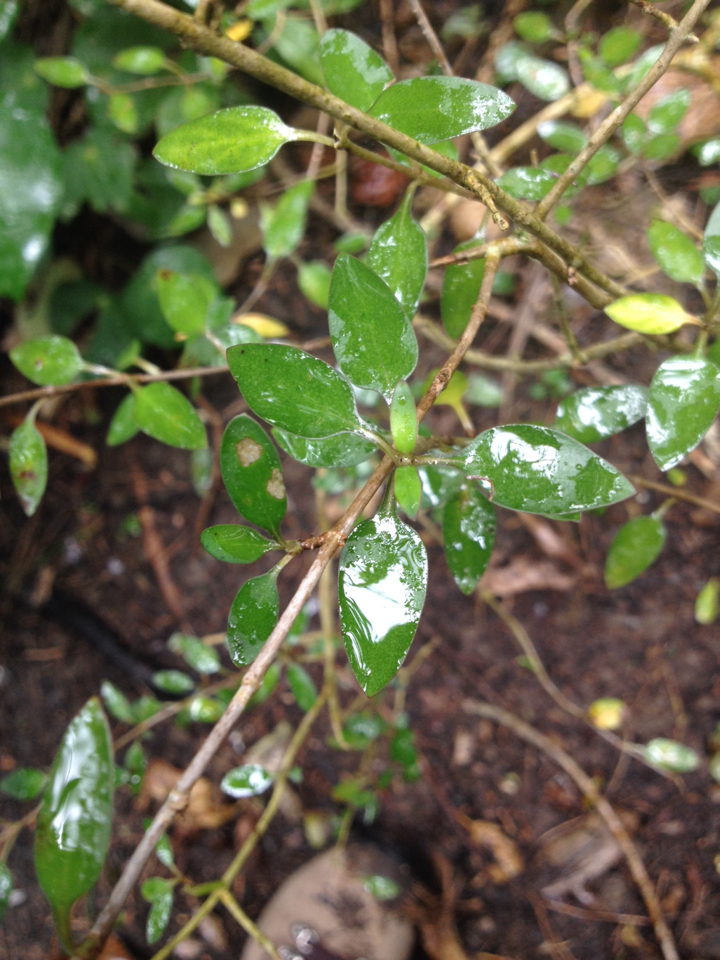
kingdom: Plantae
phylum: Tracheophyta
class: Magnoliopsida
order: Gentianales
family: Rubiaceae
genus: Coprosma
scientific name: Coprosma cunninghamii
